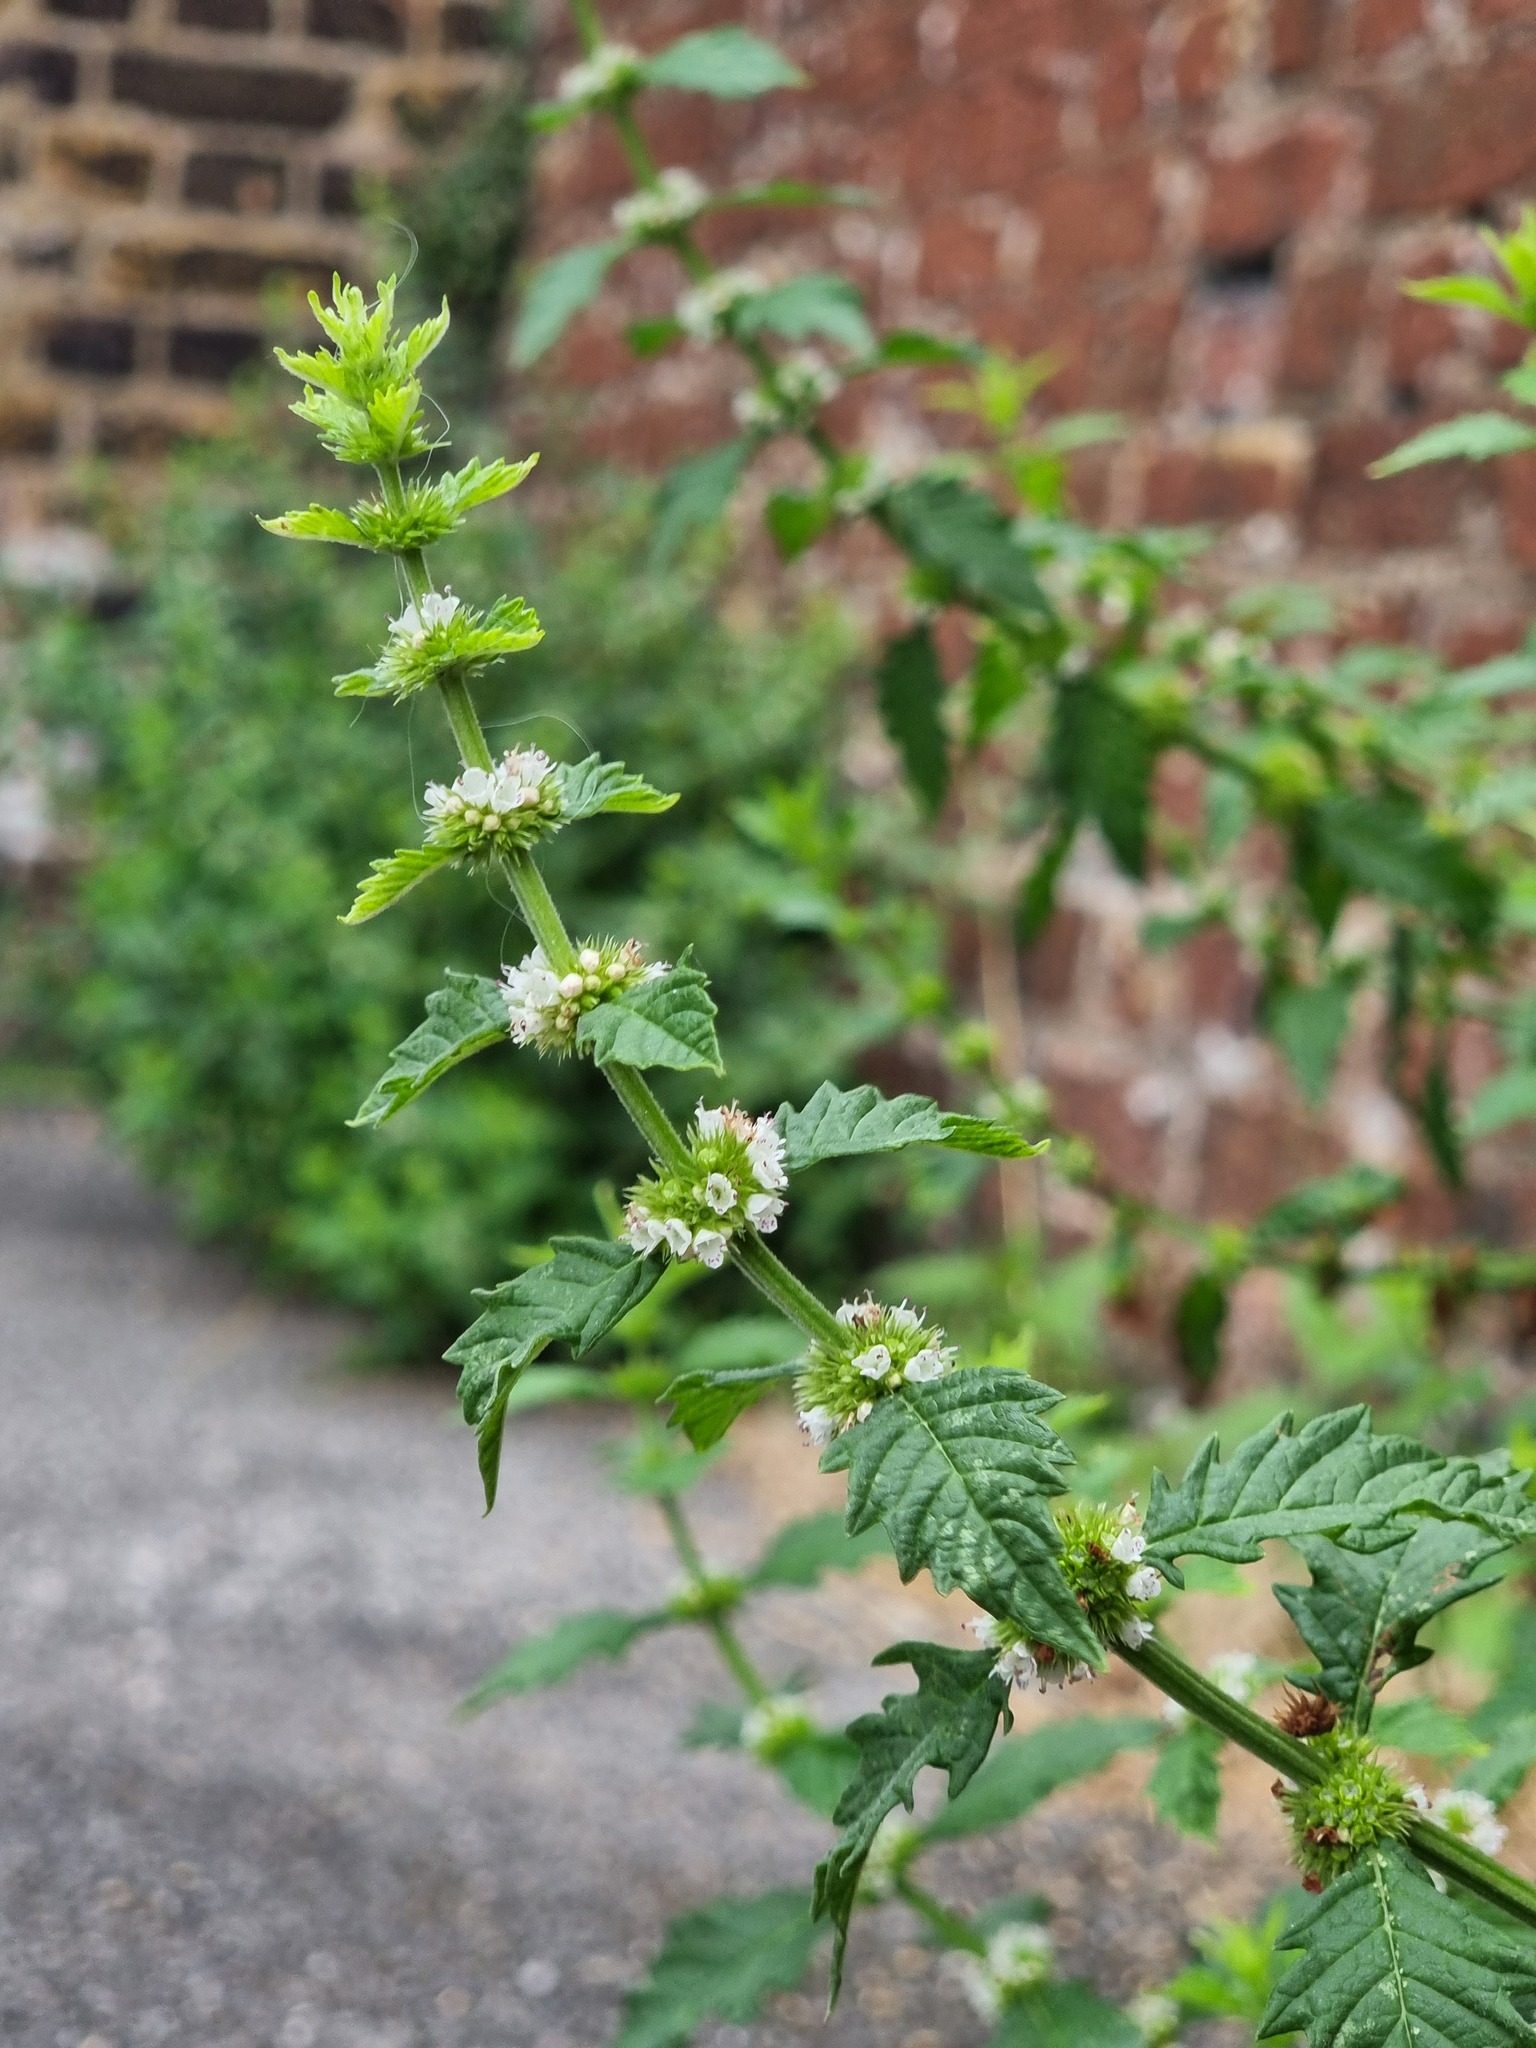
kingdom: Plantae
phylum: Tracheophyta
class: Magnoliopsida
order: Lamiales
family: Lamiaceae
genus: Lycopus
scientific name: Lycopus europaeus
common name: European bugleweed
